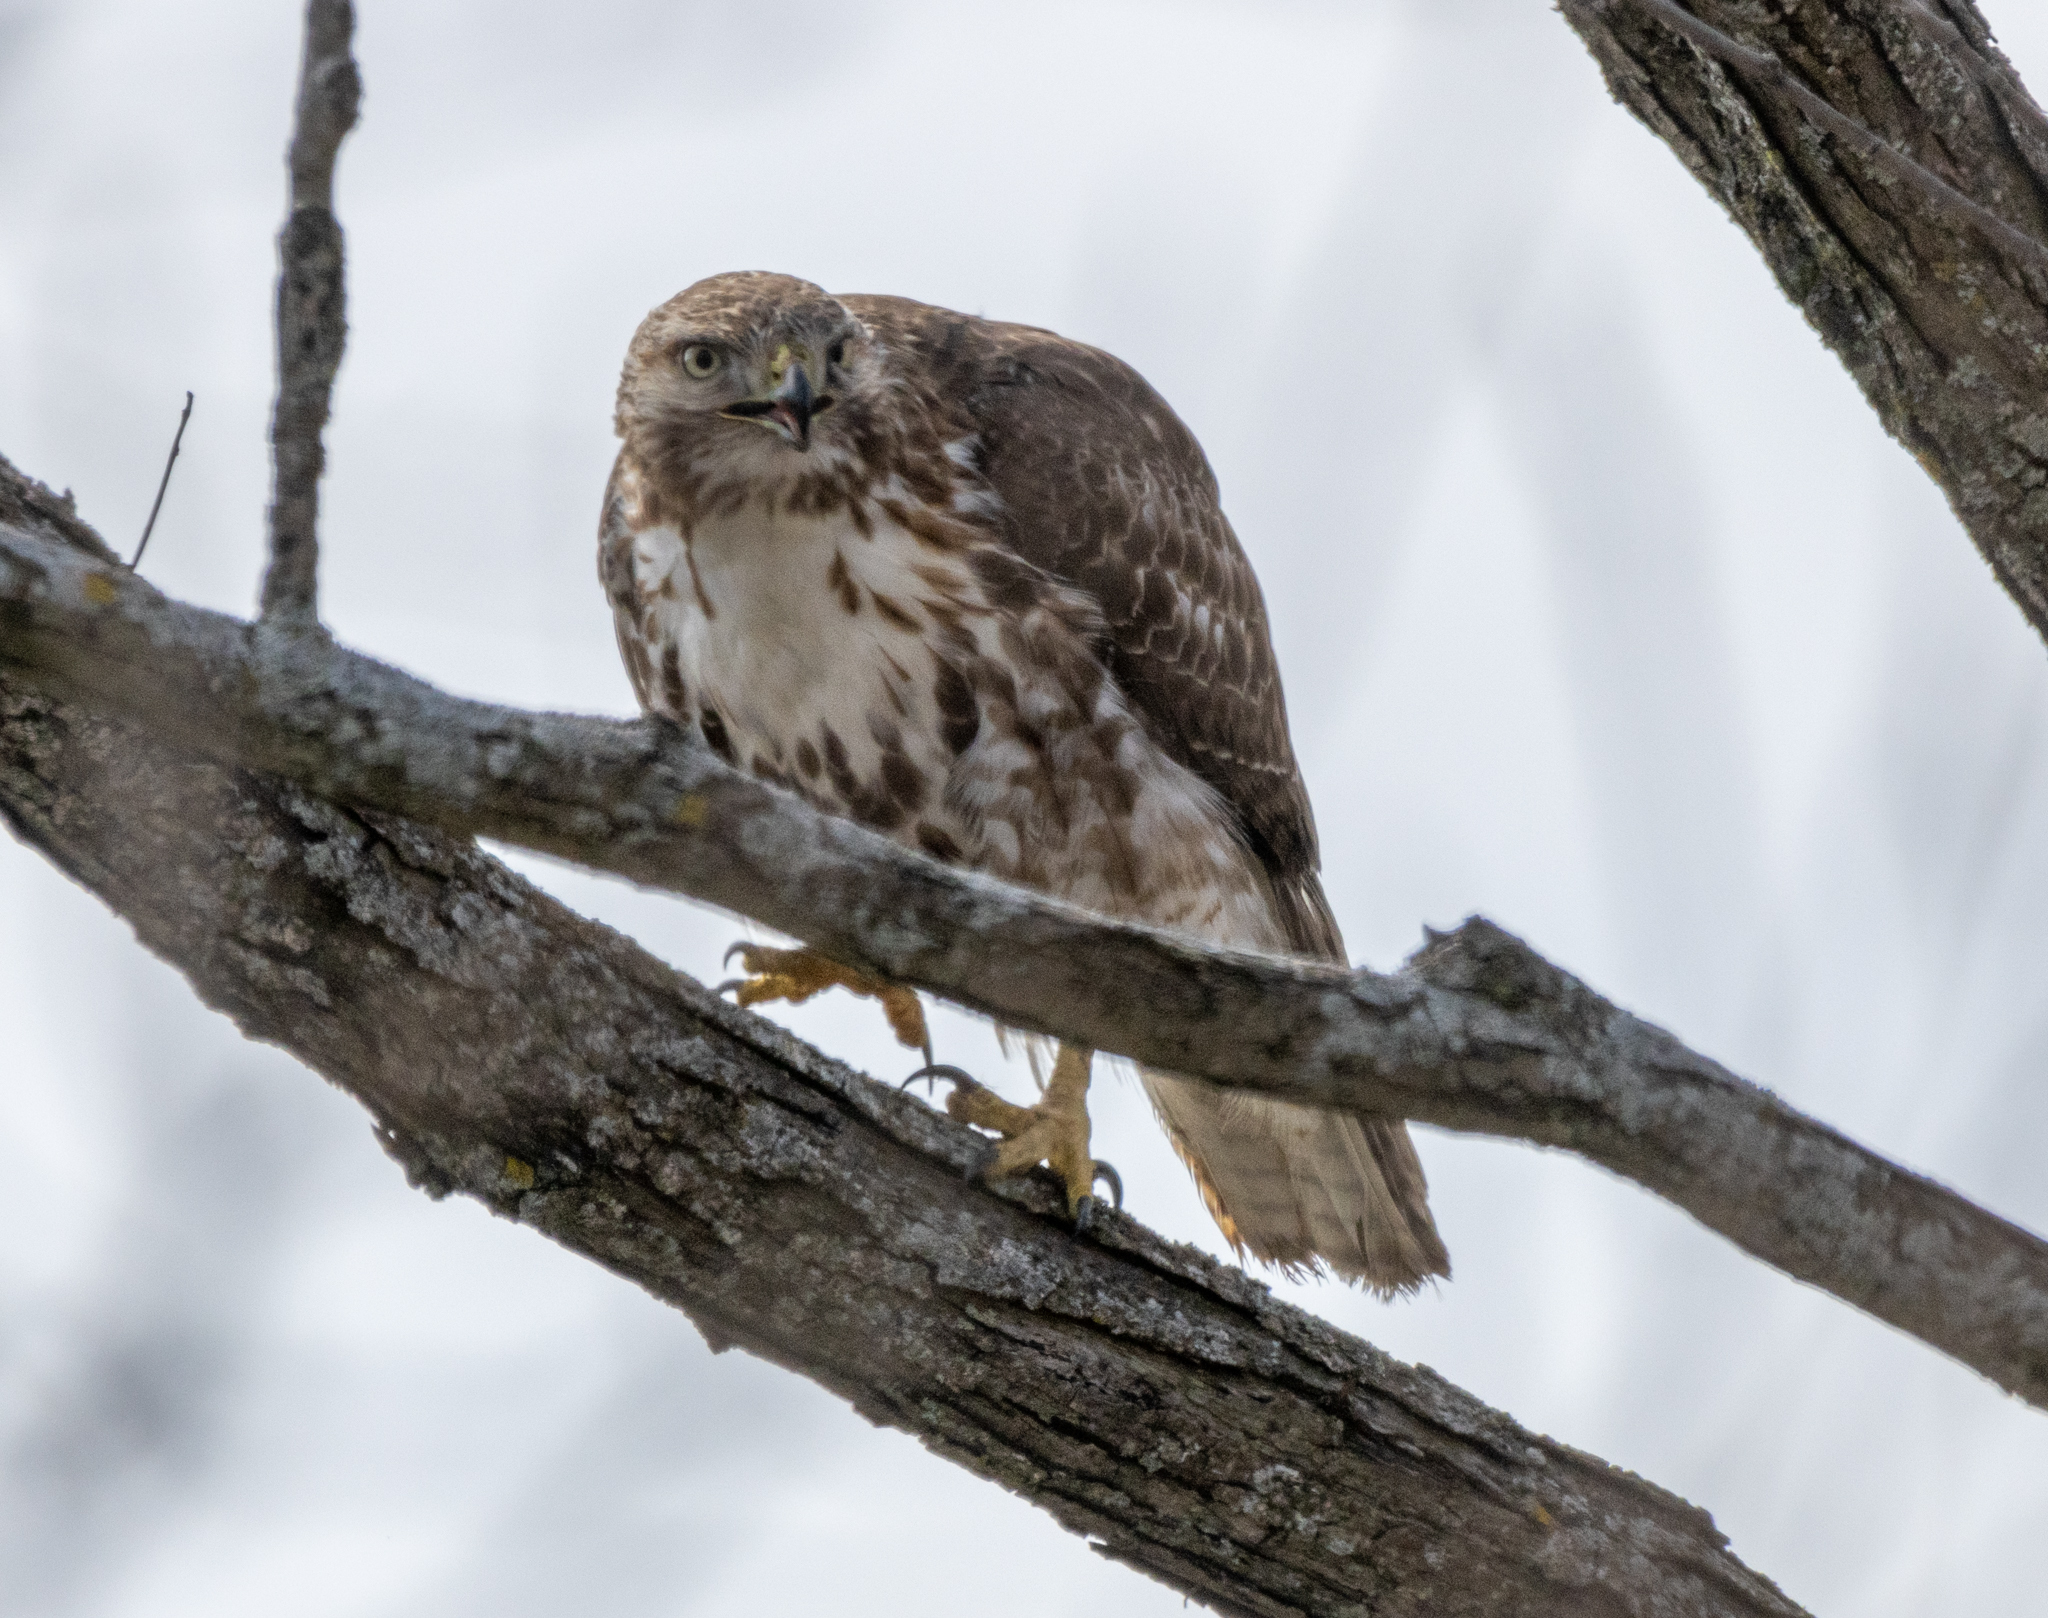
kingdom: Animalia
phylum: Chordata
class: Aves
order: Accipitriformes
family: Accipitridae
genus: Buteo
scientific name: Buteo jamaicensis
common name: Red-tailed hawk
